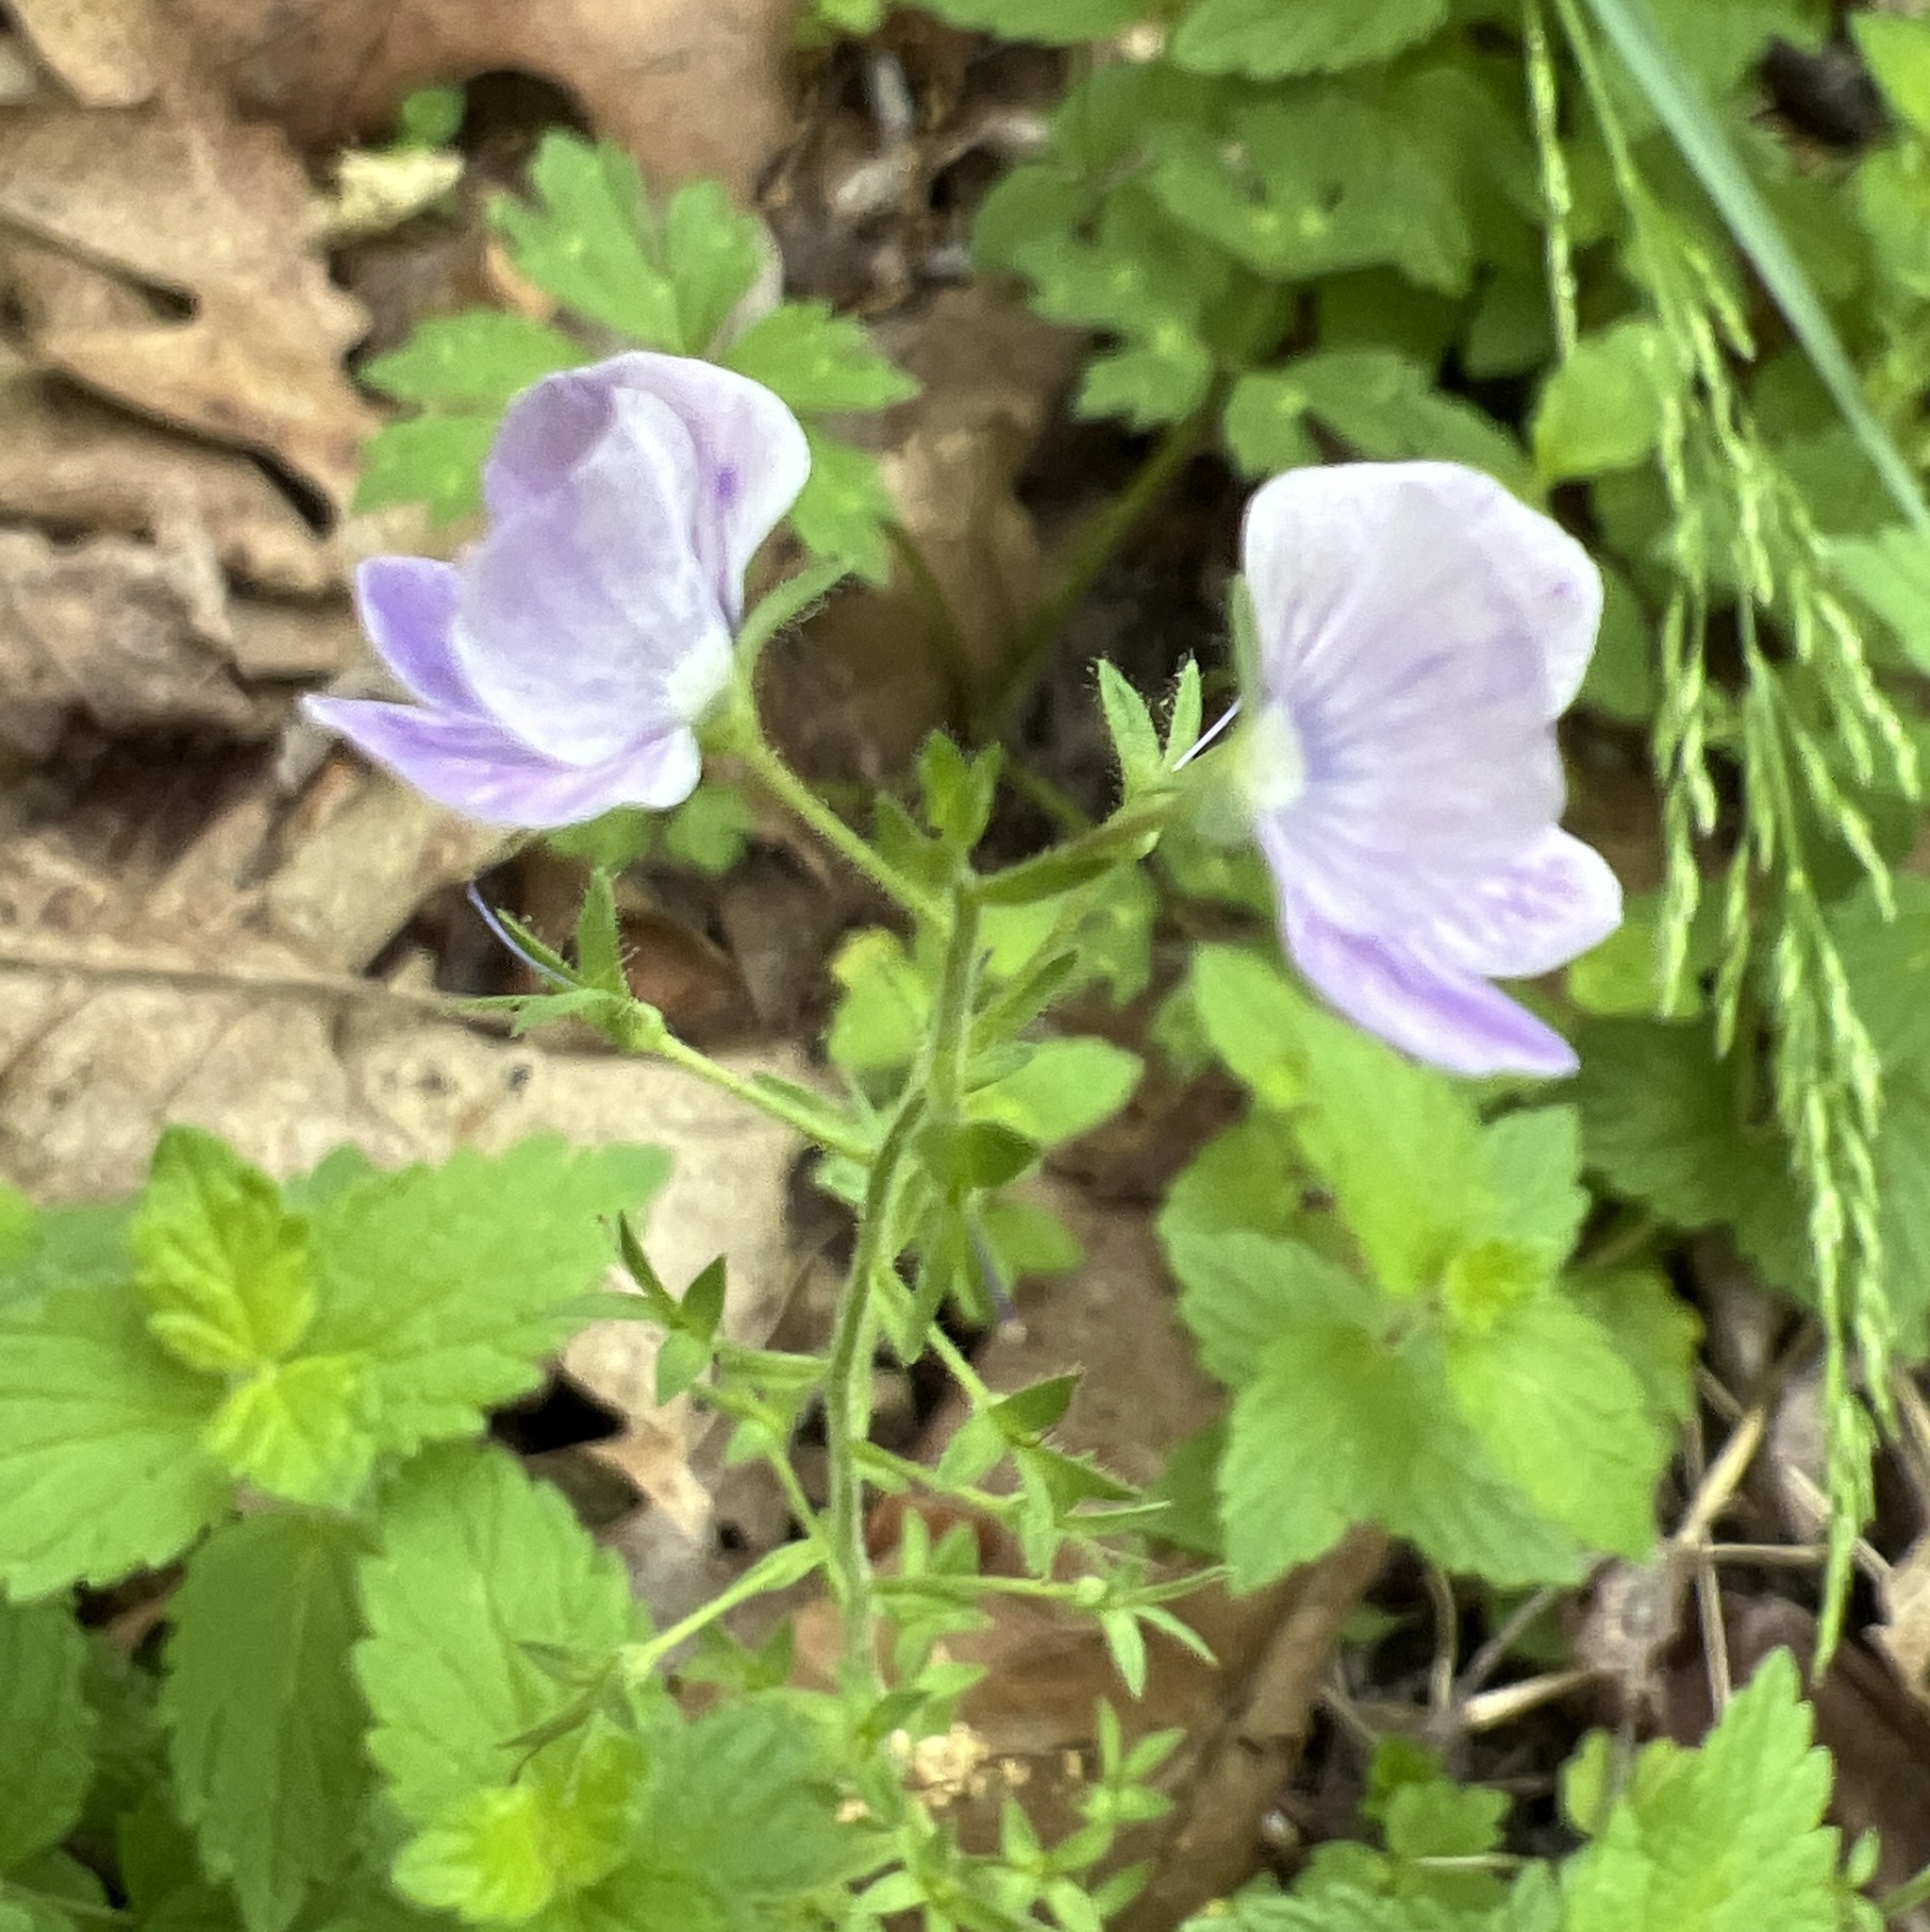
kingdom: Plantae
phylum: Tracheophyta
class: Magnoliopsida
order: Lamiales
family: Plantaginaceae
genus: Veronica
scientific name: Veronica chamaedrys
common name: Germander speedwell
